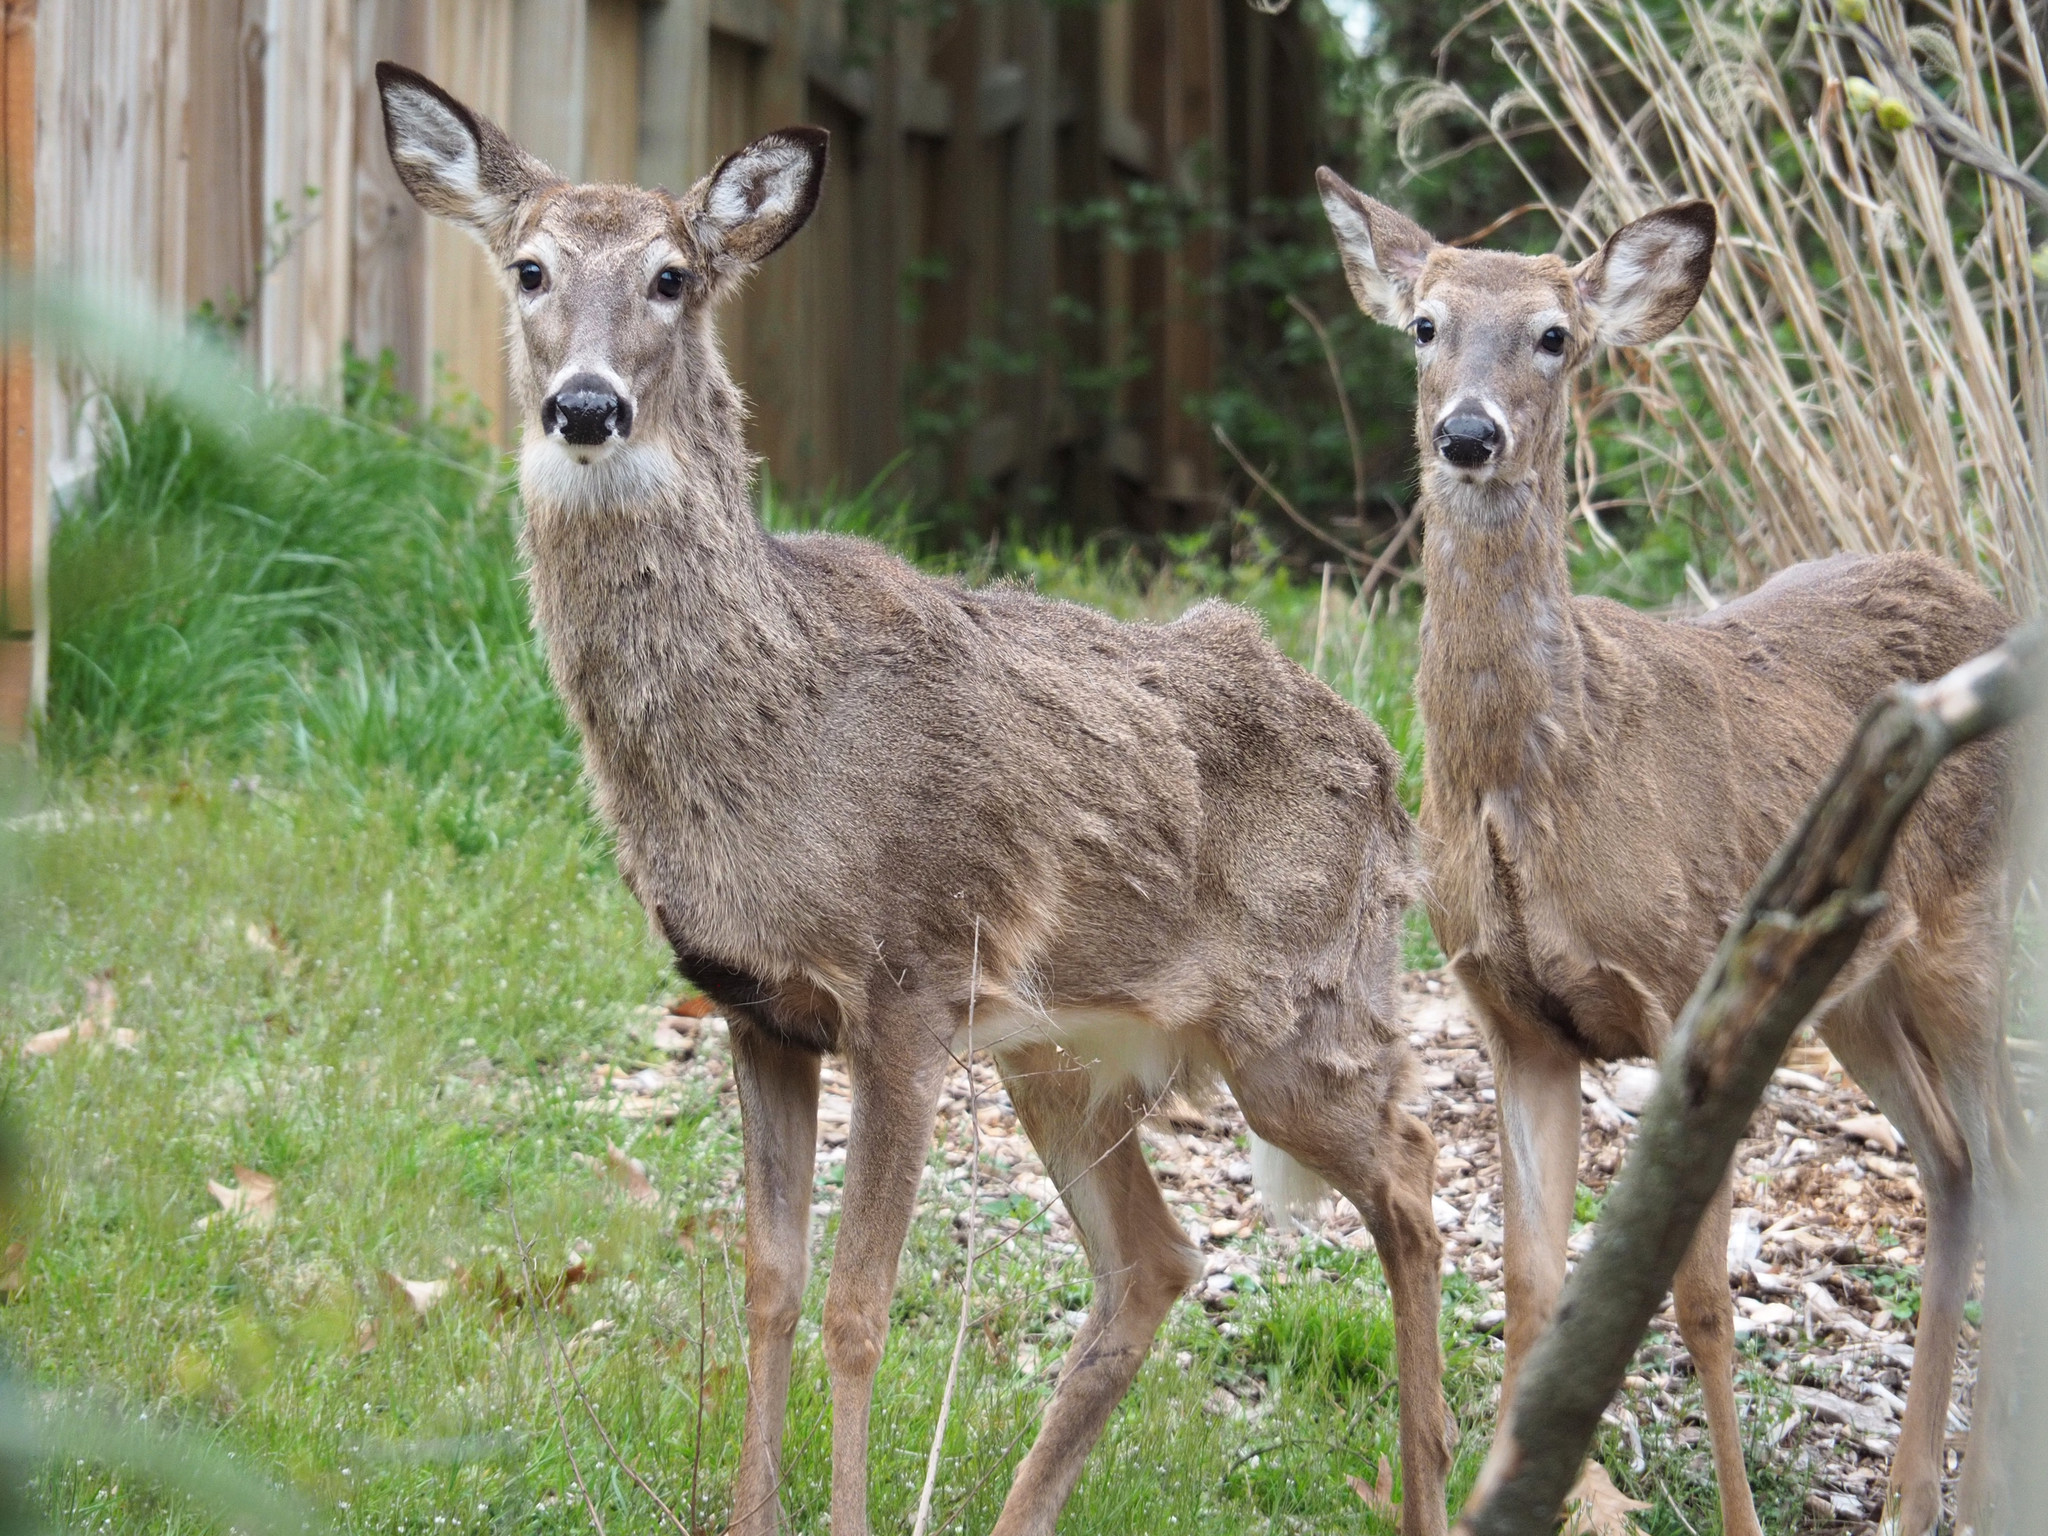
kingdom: Animalia
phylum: Chordata
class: Mammalia
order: Artiodactyla
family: Cervidae
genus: Odocoileus
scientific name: Odocoileus virginianus
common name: White-tailed deer
